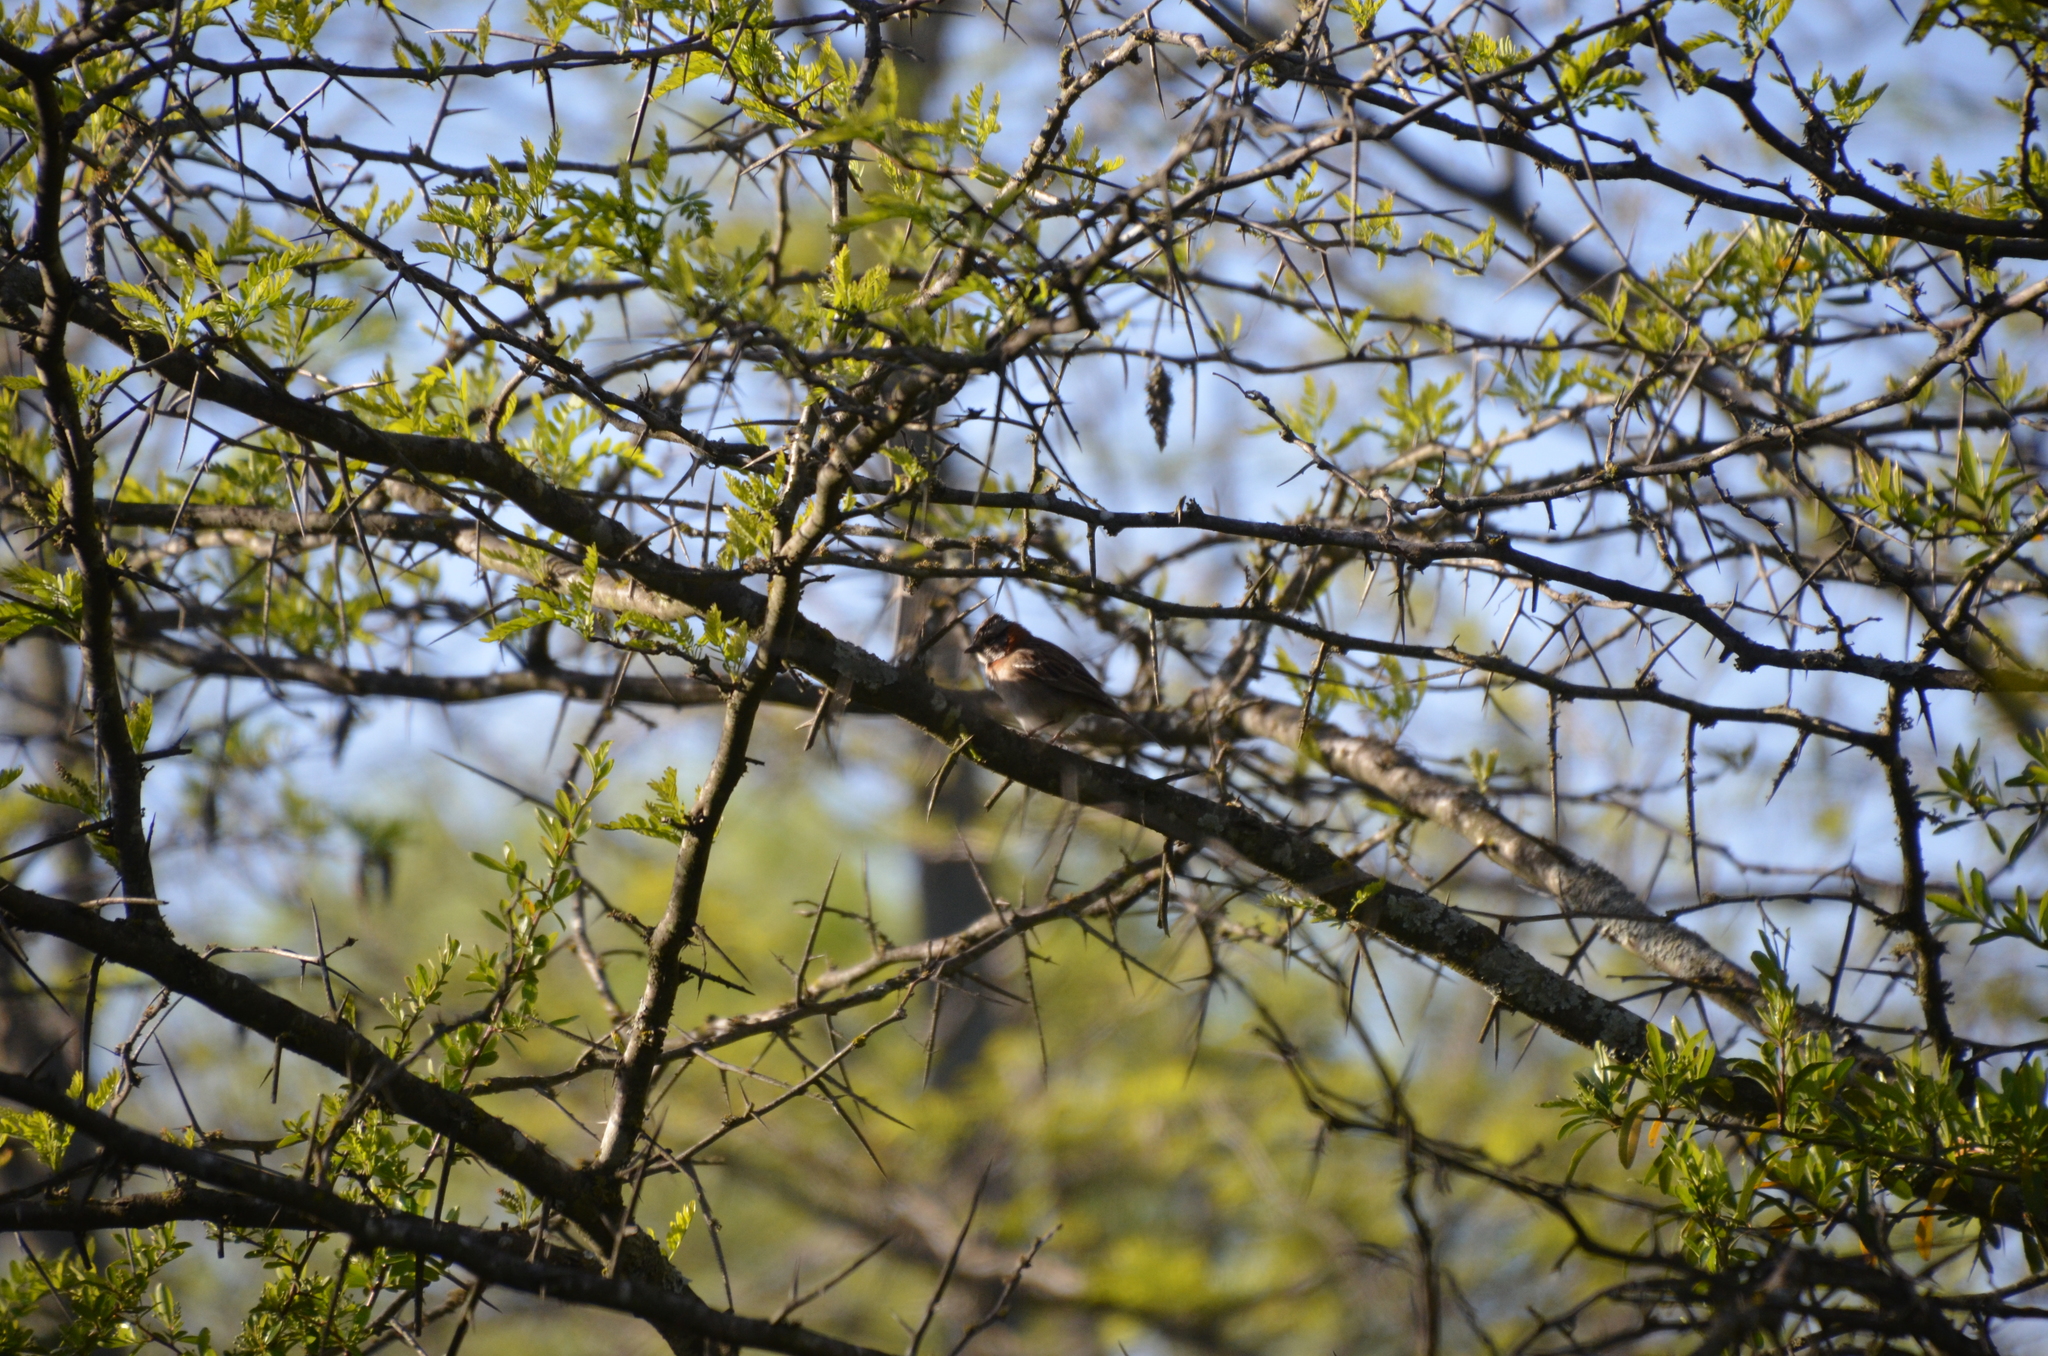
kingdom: Animalia
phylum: Chordata
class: Aves
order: Passeriformes
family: Passerellidae
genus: Zonotrichia
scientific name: Zonotrichia capensis
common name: Rufous-collared sparrow
